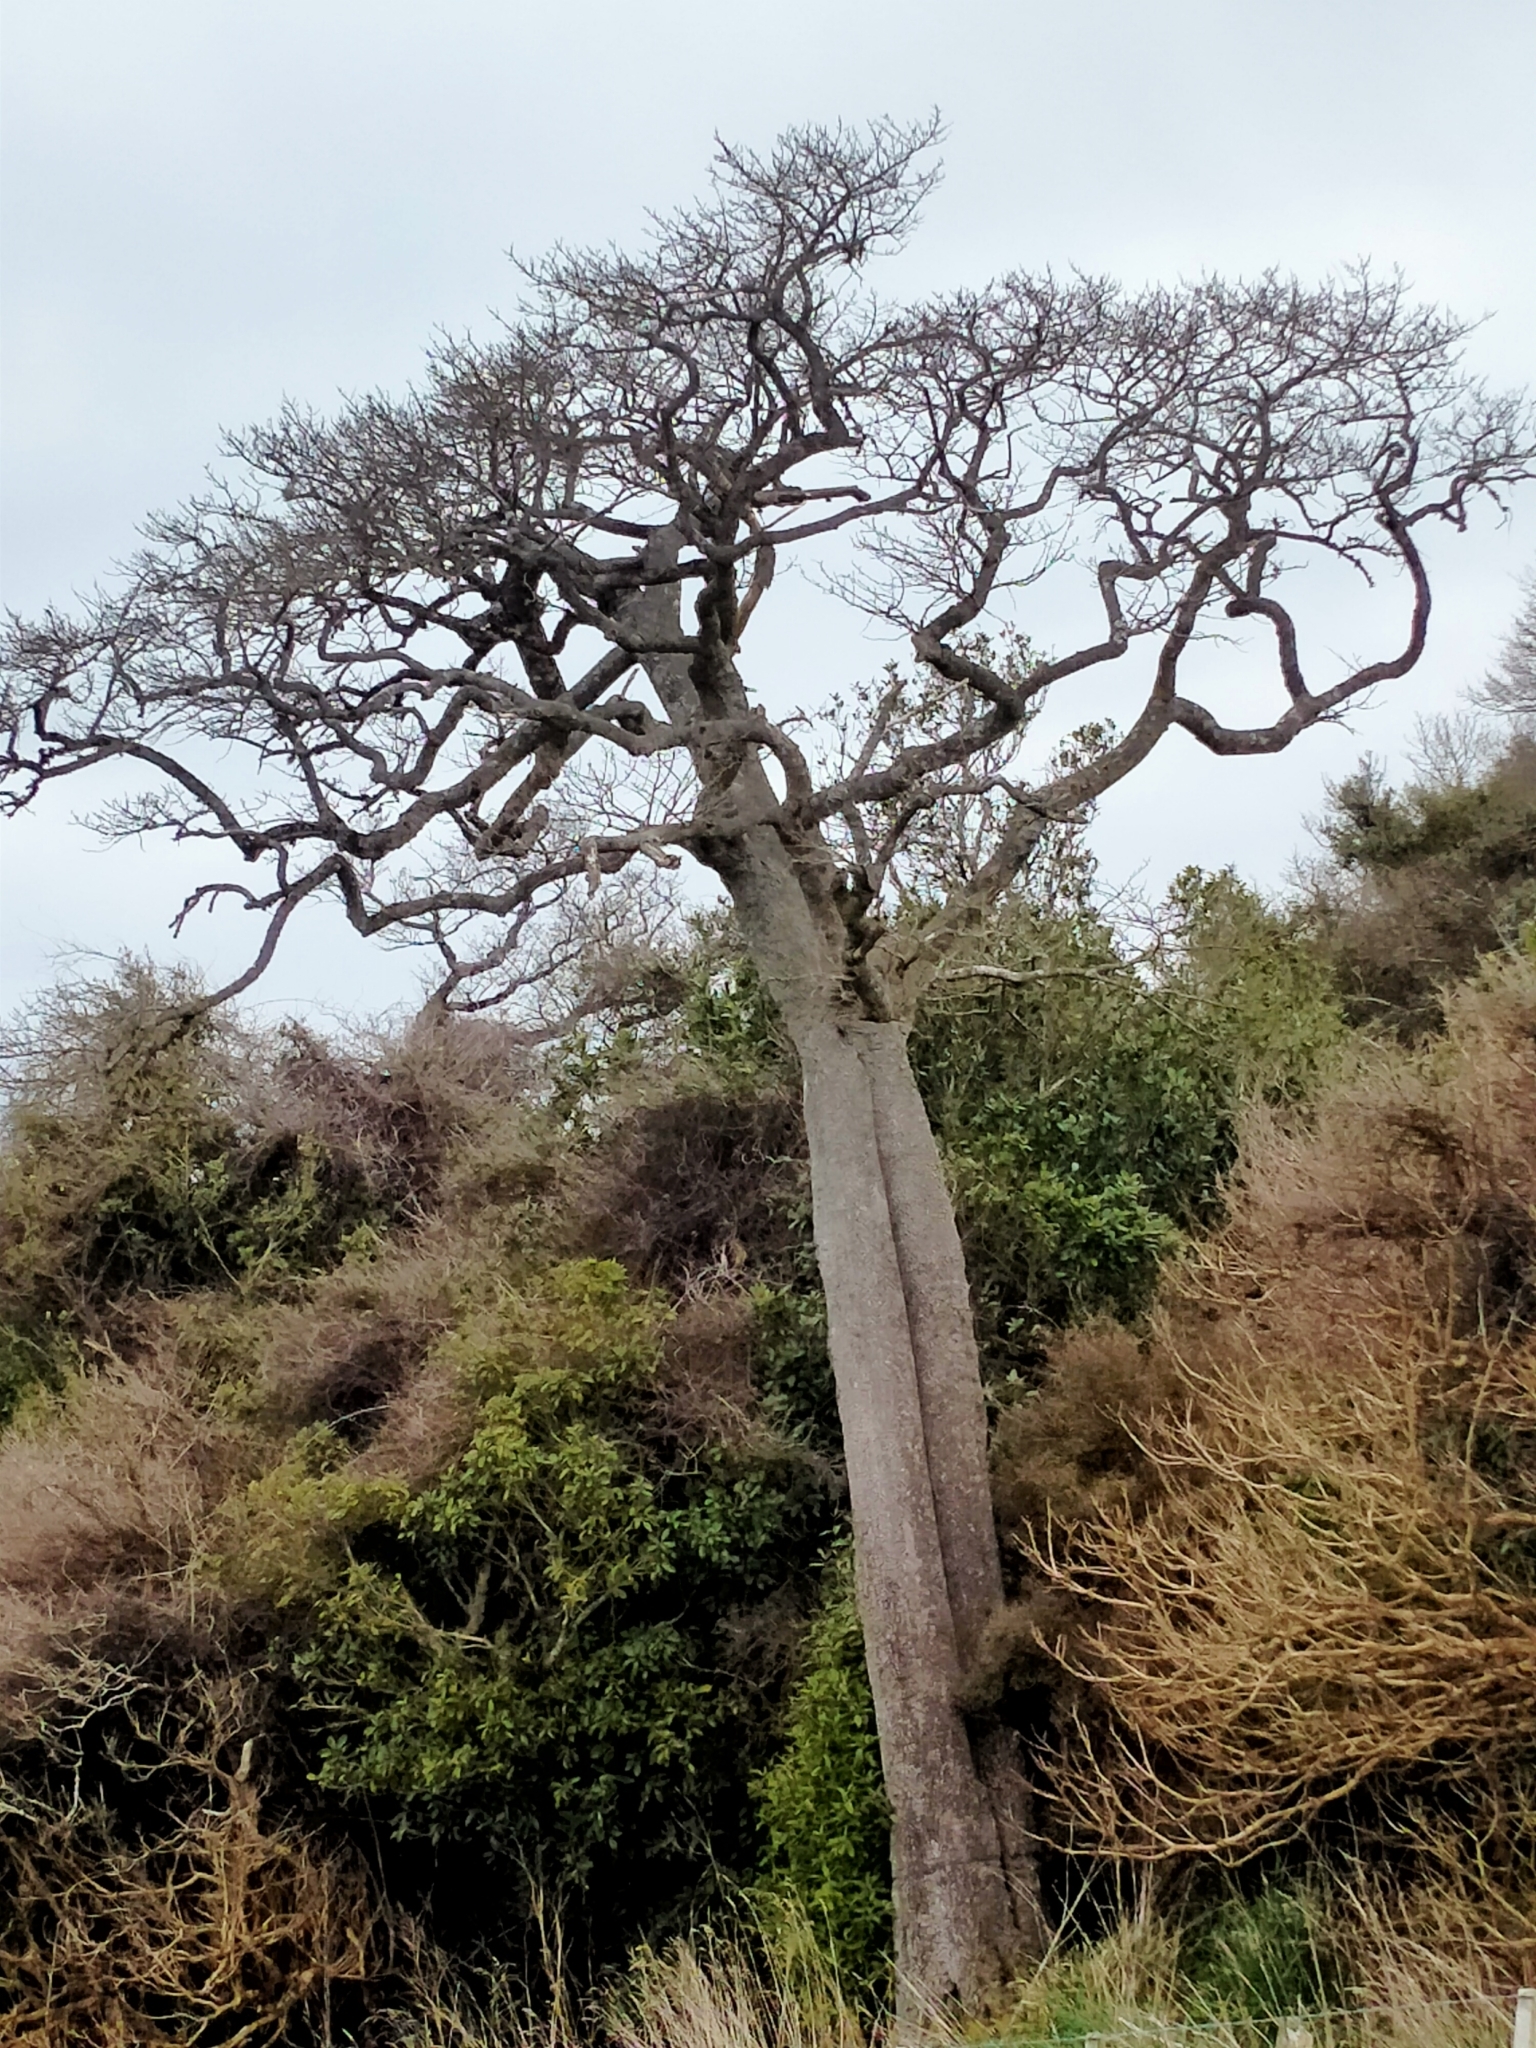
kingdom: Plantae
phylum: Tracheophyta
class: Magnoliopsida
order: Malvales
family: Malvaceae
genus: Plagianthus
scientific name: Plagianthus regius
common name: Manatu
